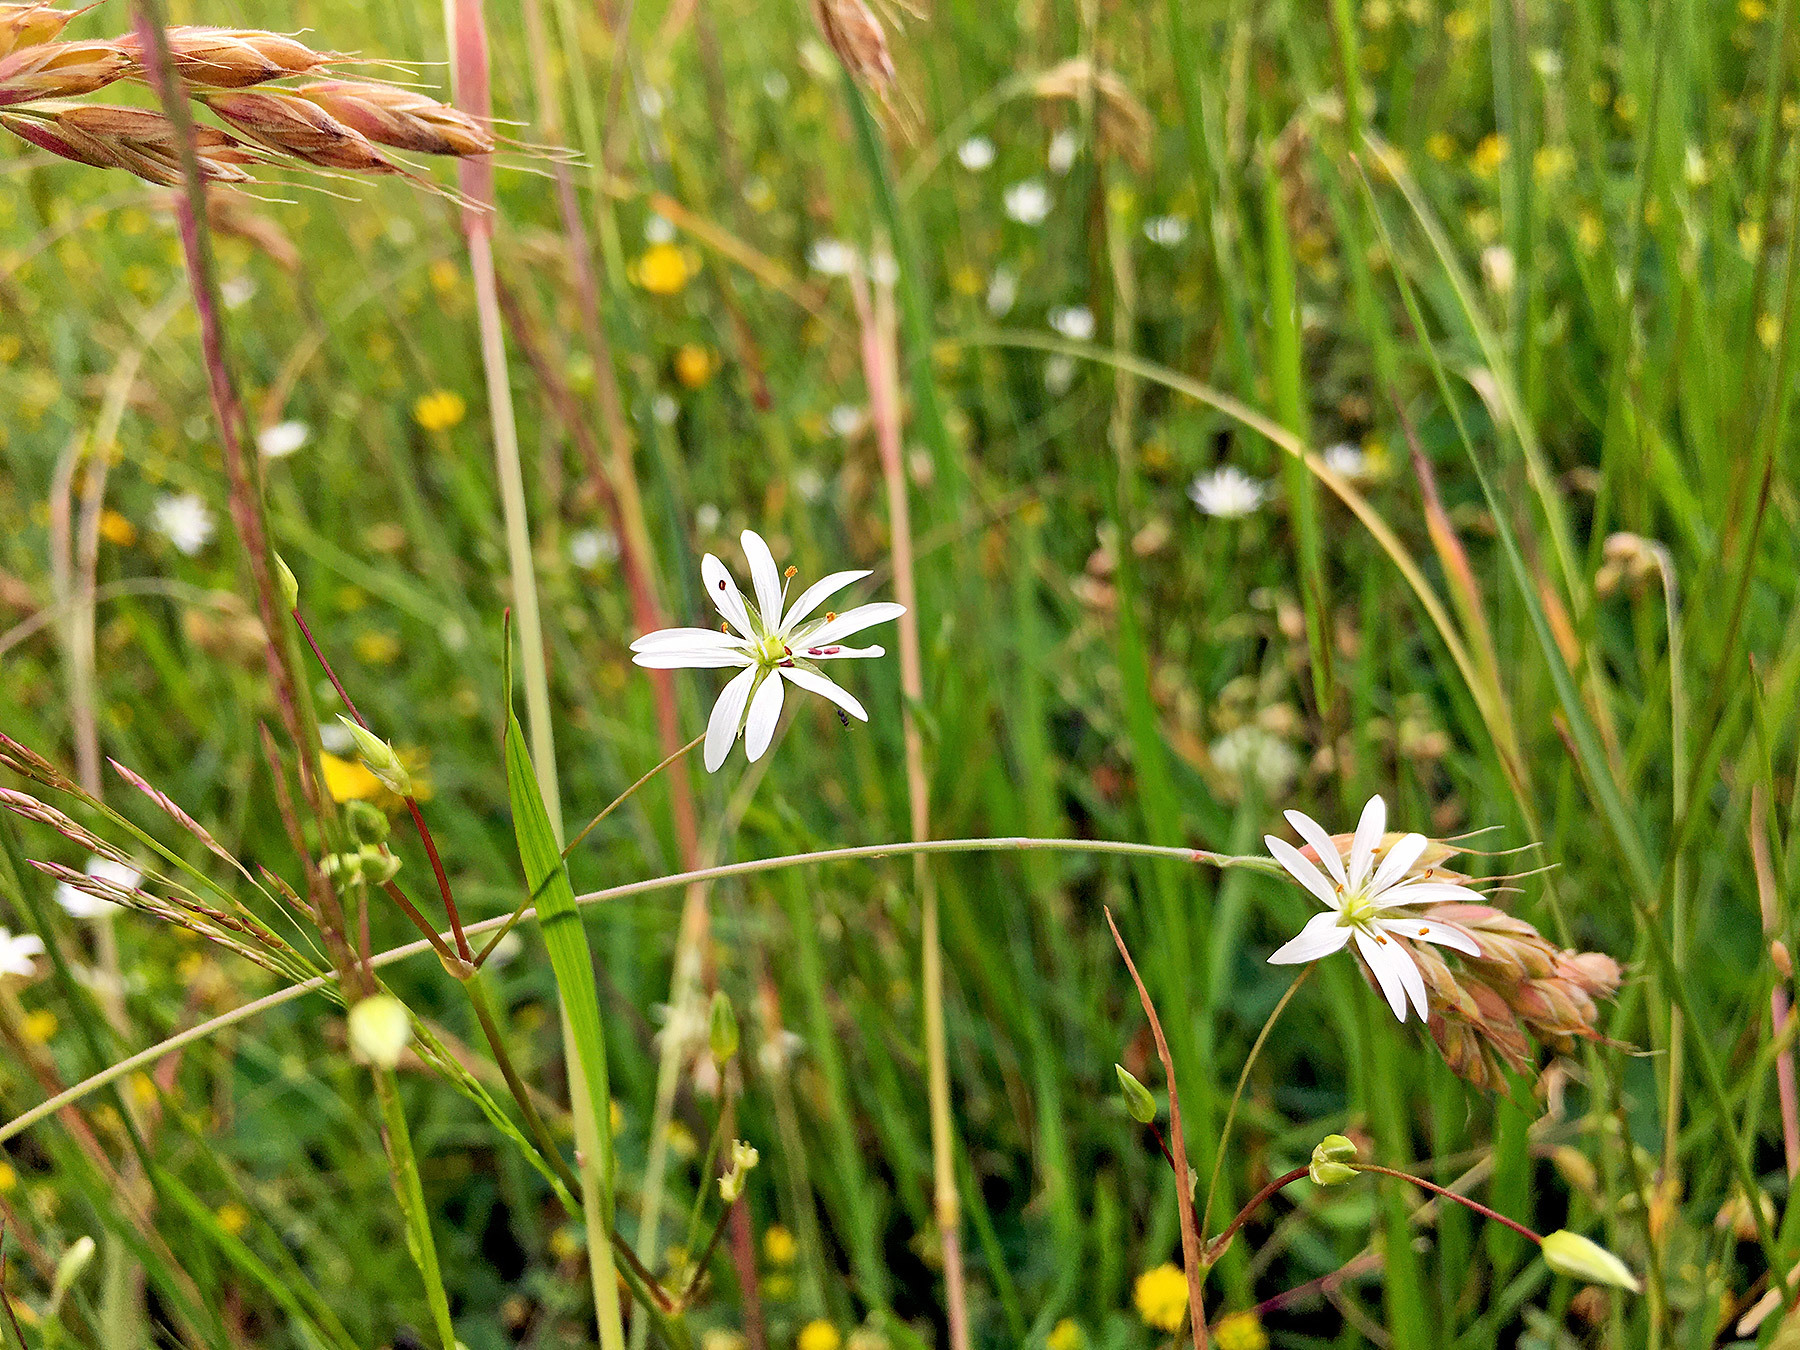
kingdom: Plantae
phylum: Tracheophyta
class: Magnoliopsida
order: Caryophyllales
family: Caryophyllaceae
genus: Stellaria
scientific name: Stellaria nemorum
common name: Wood stitchwort
